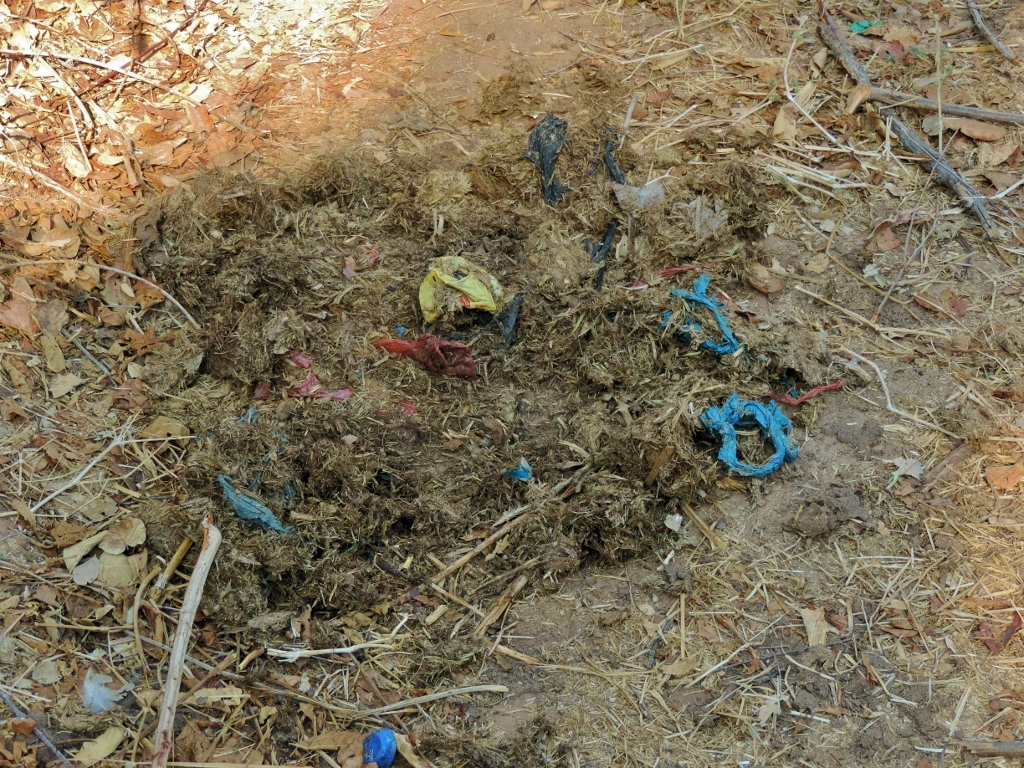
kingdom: Animalia
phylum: Chordata
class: Mammalia
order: Proboscidea
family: Elephantidae
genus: Loxodonta
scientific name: Loxodonta africana
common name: African elephant
